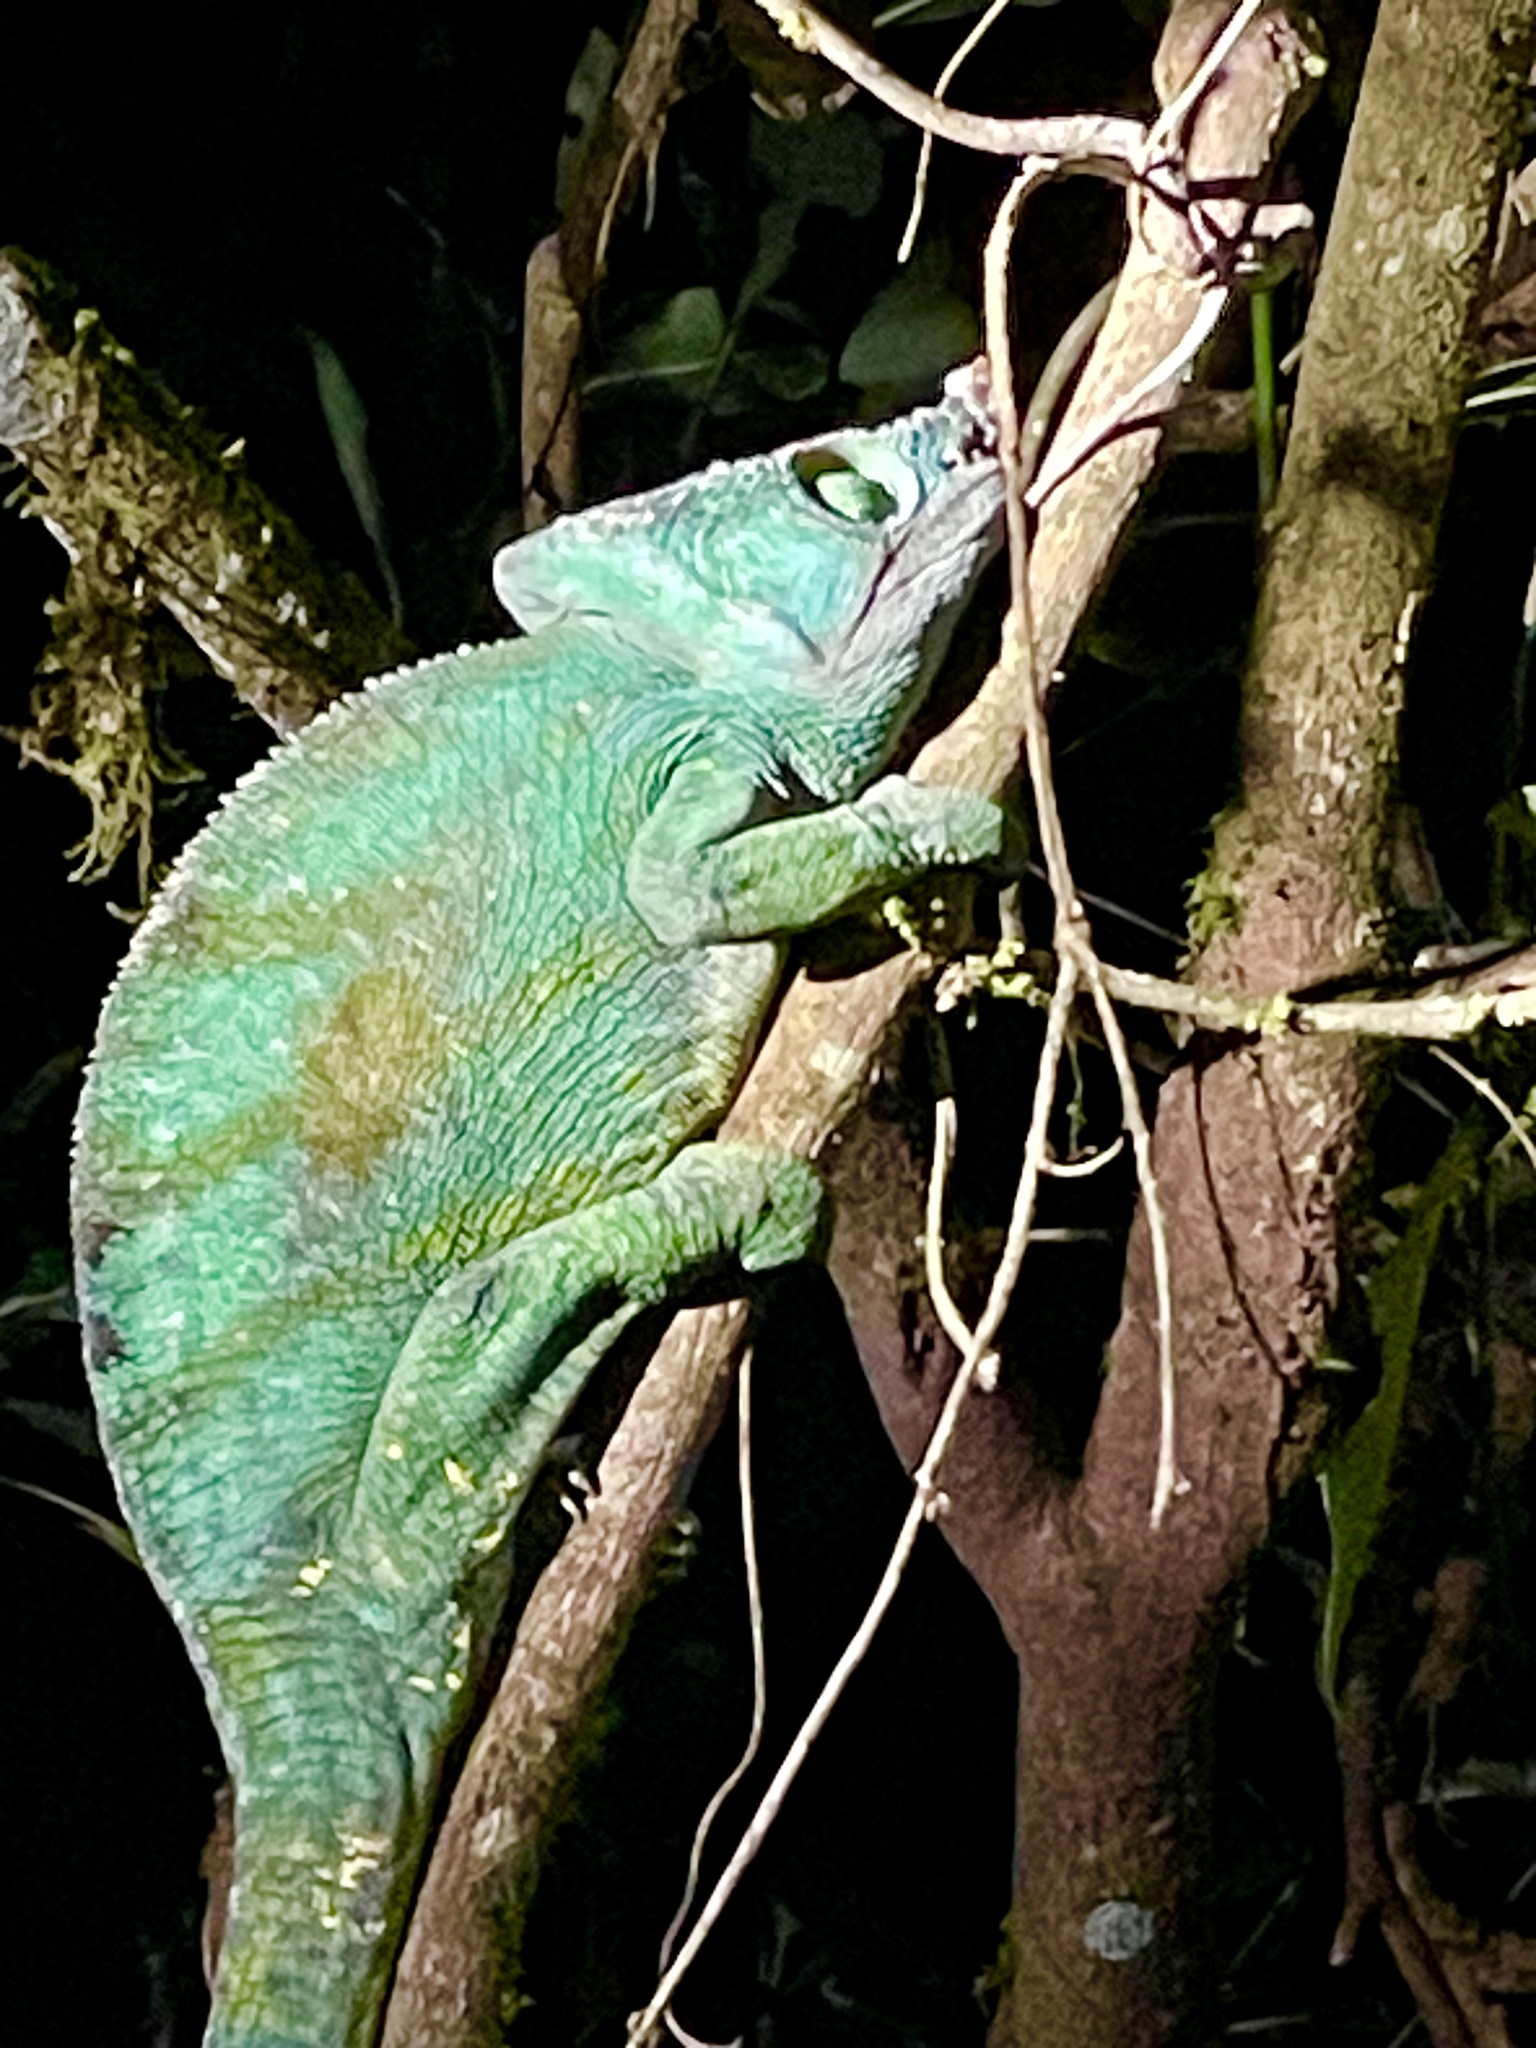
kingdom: Animalia
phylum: Chordata
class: Squamata
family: Chamaeleonidae
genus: Calumma
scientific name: Calumma parsonii
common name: Parson's chameleon
